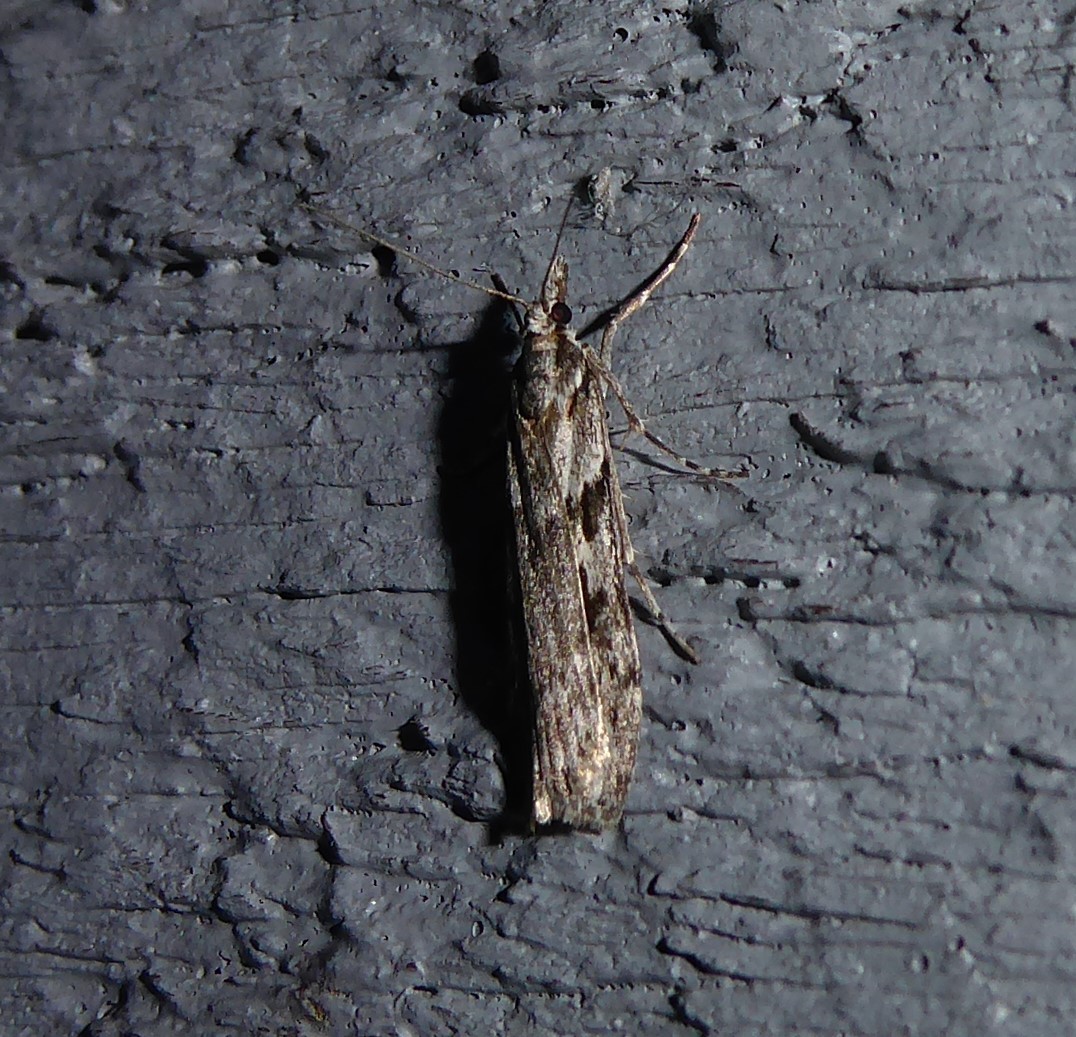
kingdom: Animalia
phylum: Arthropoda
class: Insecta
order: Lepidoptera
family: Crambidae
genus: Scoparia
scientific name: Scoparia halopis
